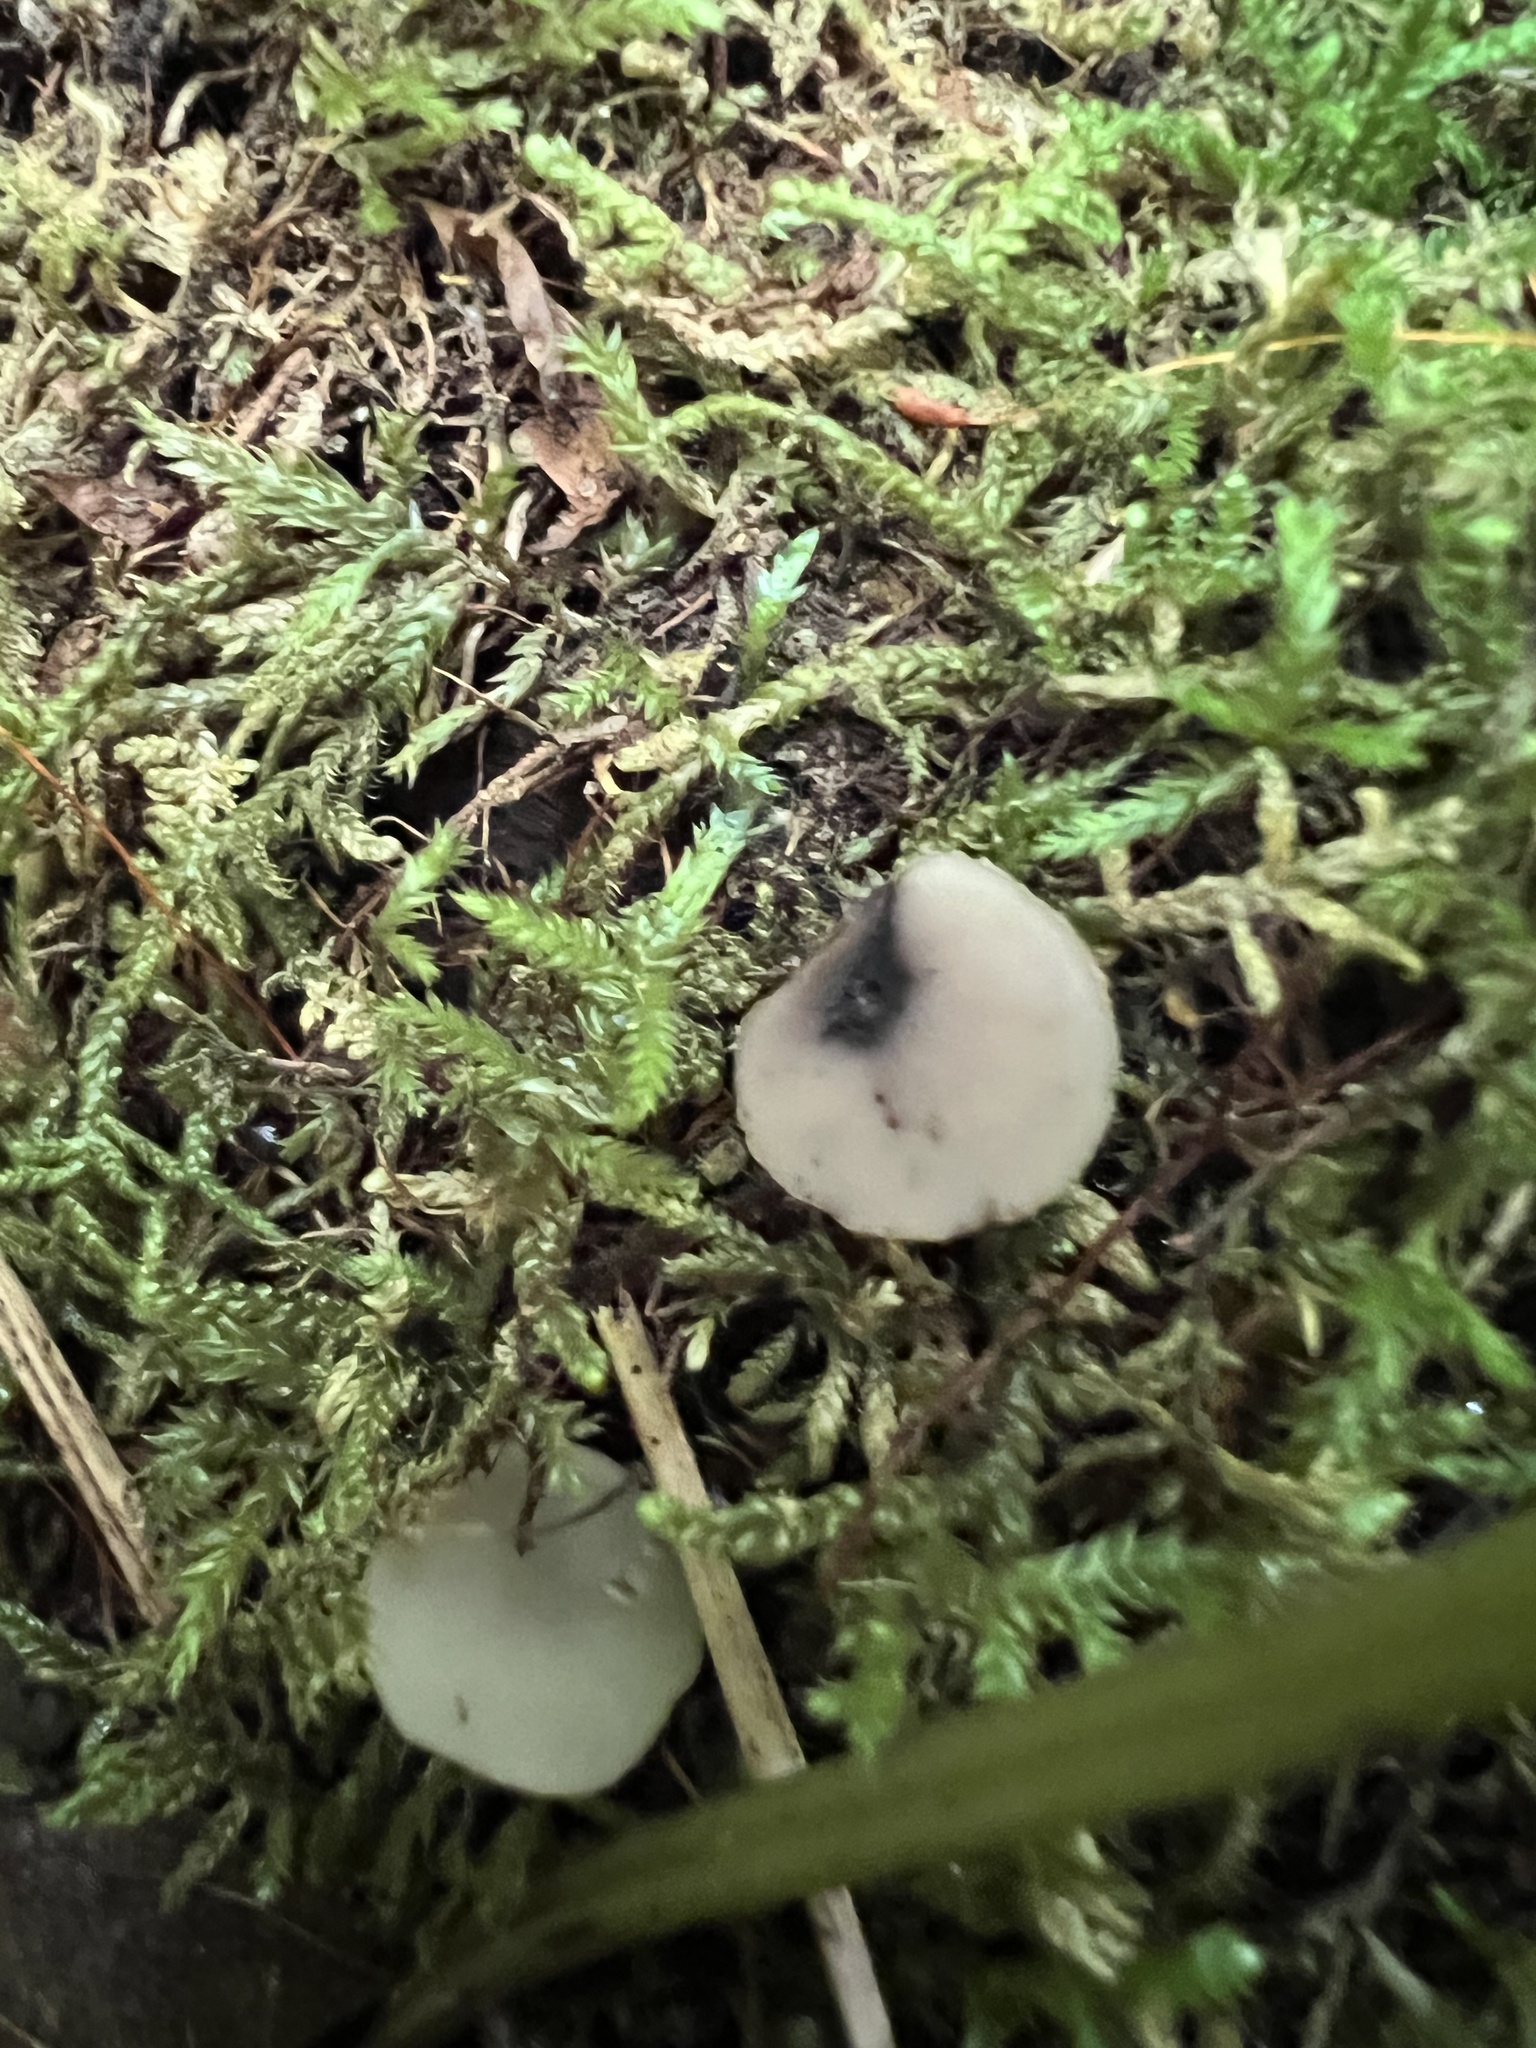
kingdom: Fungi
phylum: Ascomycota
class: Leotiomycetes
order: Helotiales
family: Helotiaceae
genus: Tatraea
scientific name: Tatraea macrospora
